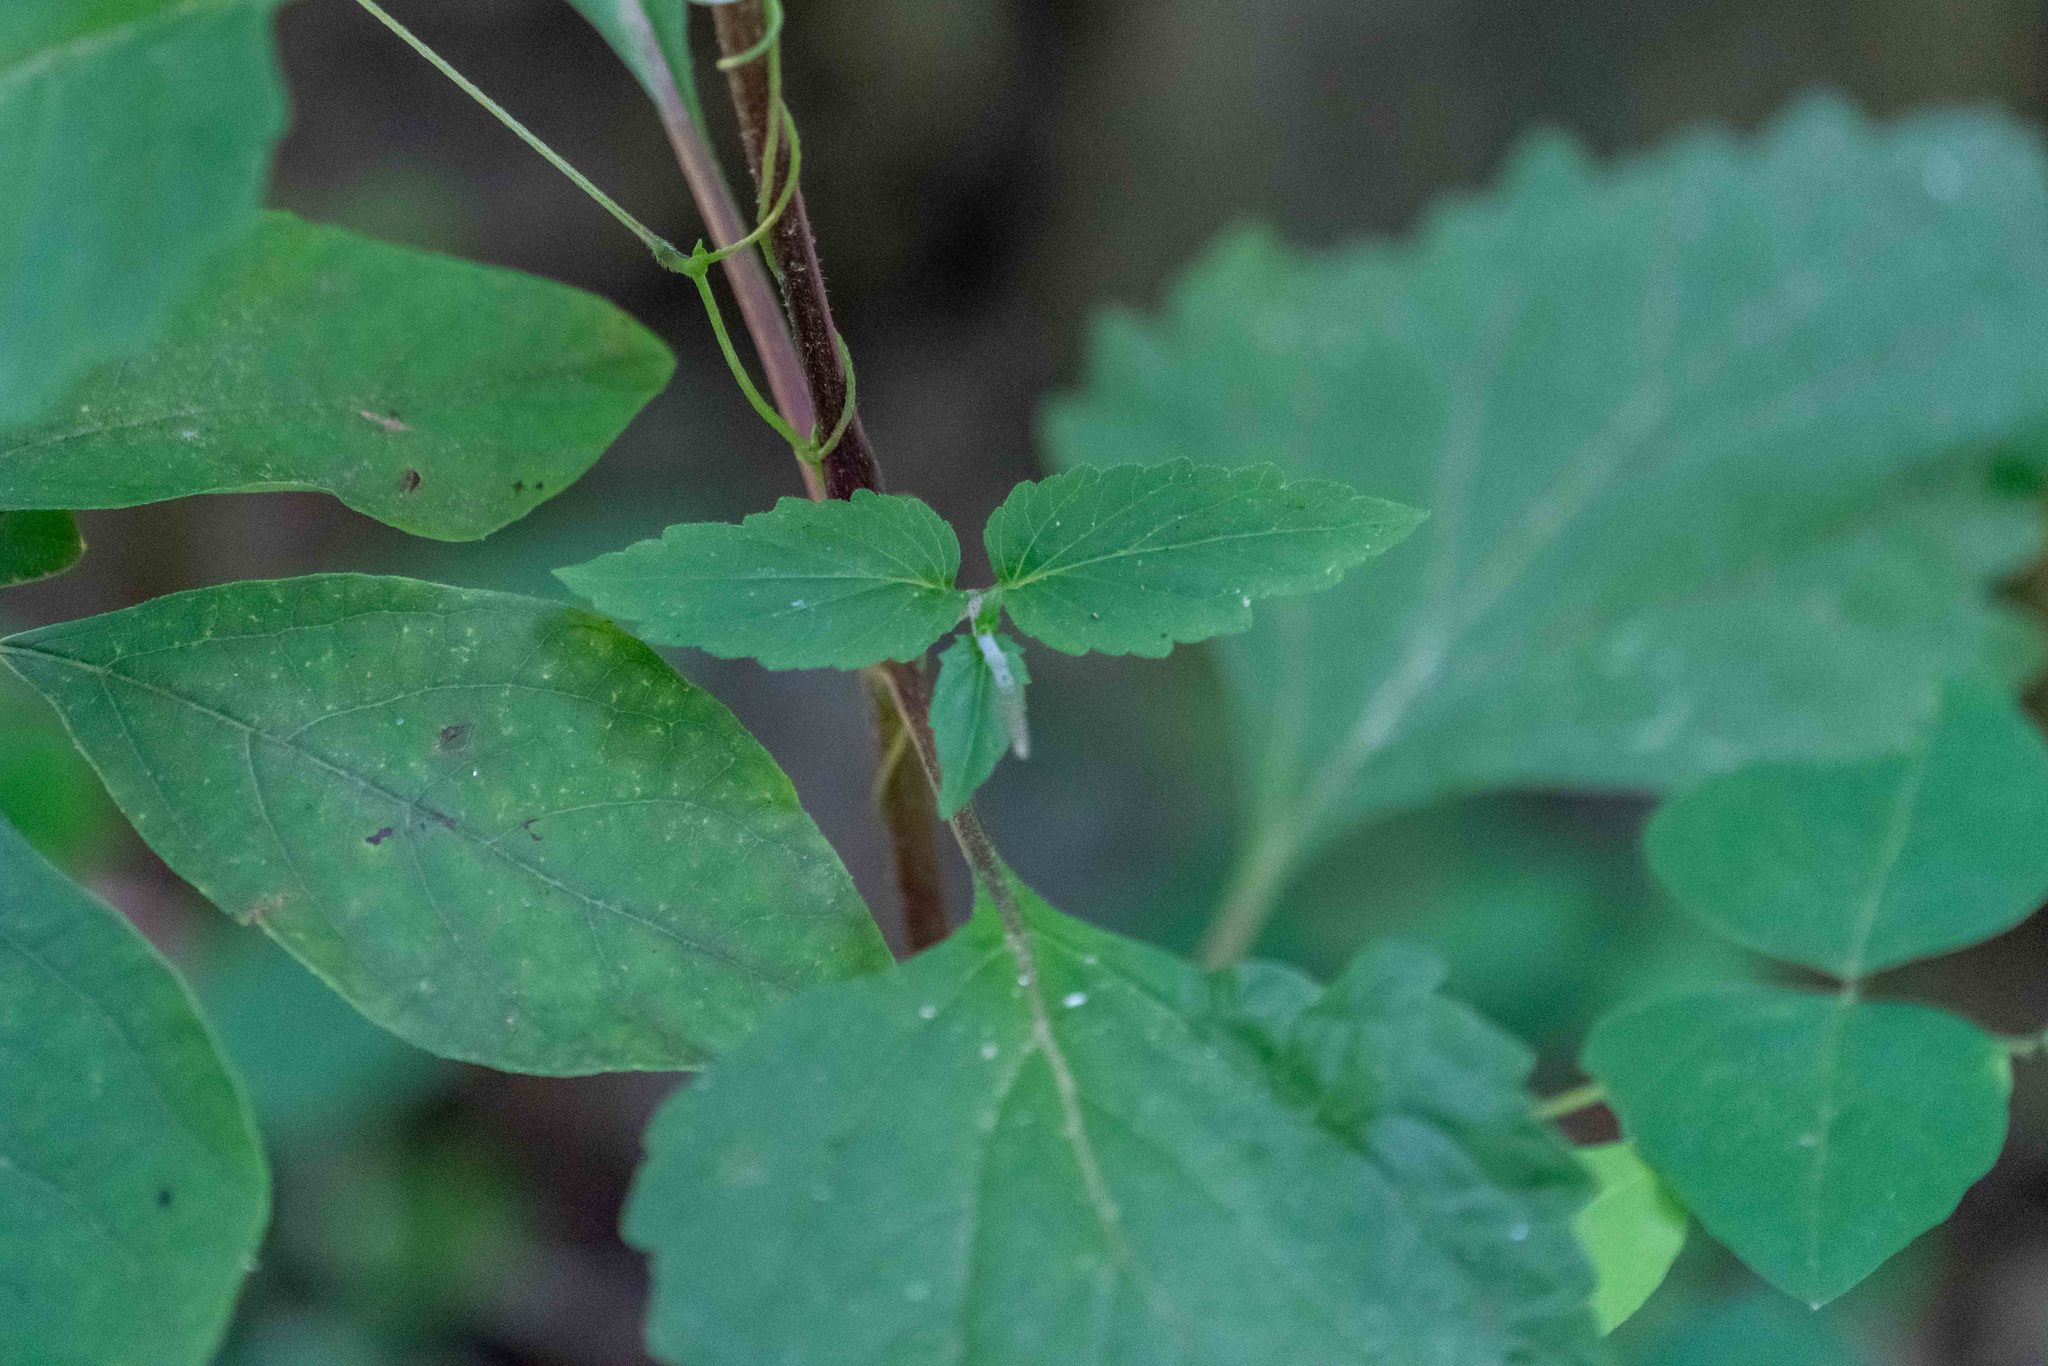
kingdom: Plantae
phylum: Tracheophyta
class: Magnoliopsida
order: Lamiales
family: Phrymaceae
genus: Phryma
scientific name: Phryma leptostachya
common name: American lopseed
